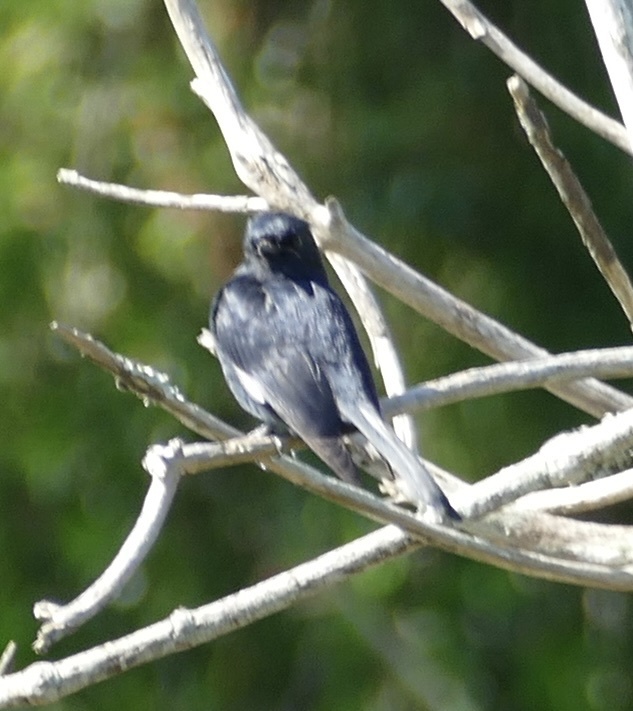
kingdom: Animalia
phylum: Chordata
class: Aves
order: Passeriformes
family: Muscicapidae
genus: Melaenornis
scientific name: Melaenornis pammelaina
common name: Southern black flycatcher
